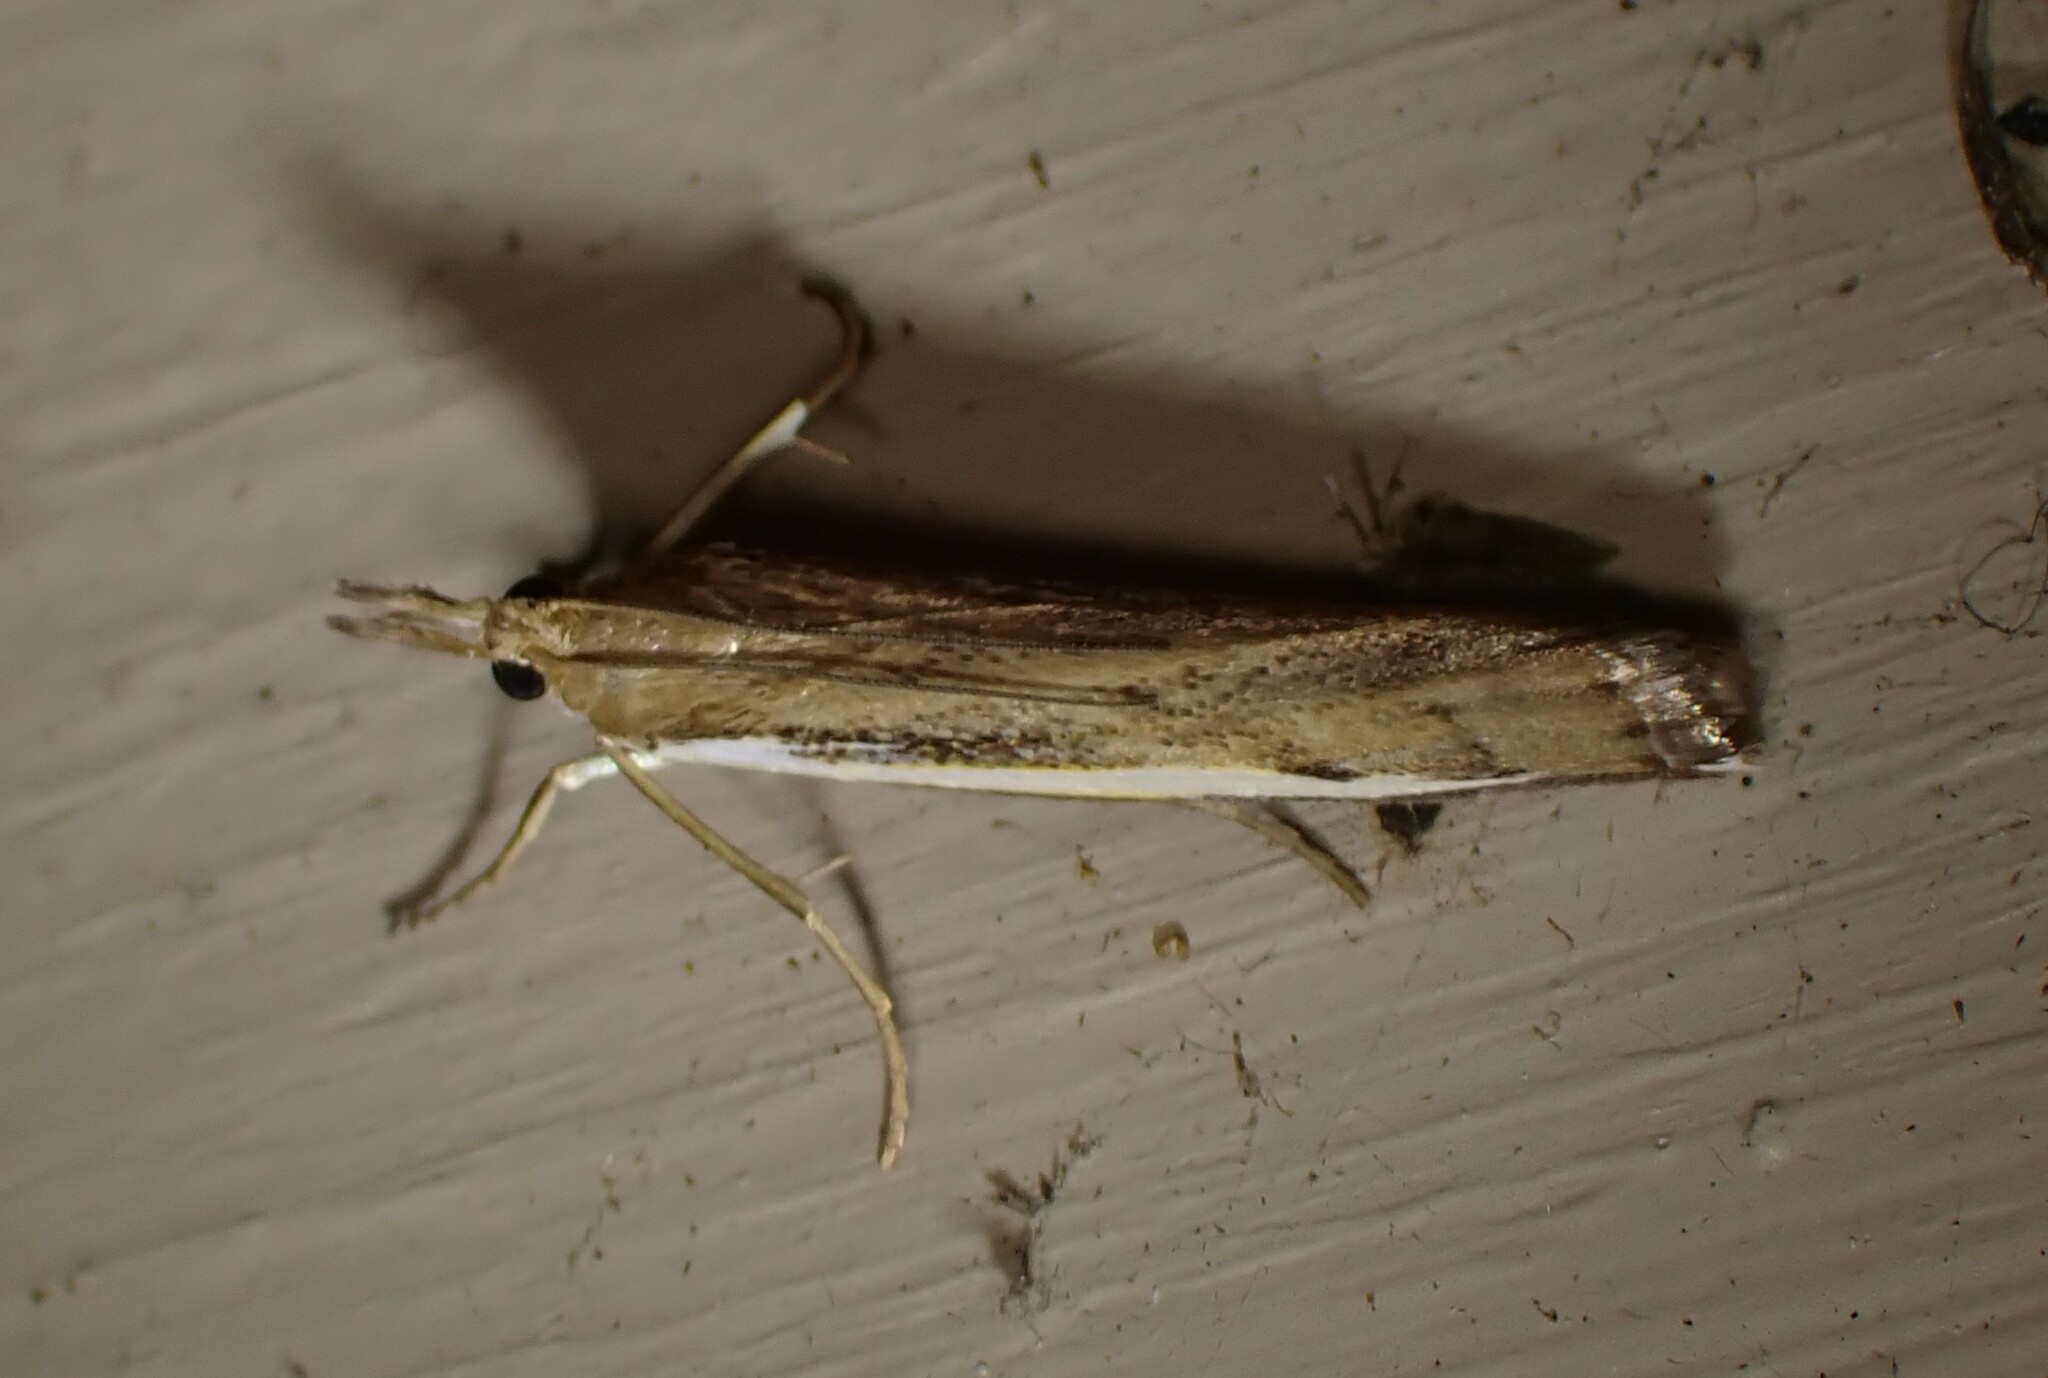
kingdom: Animalia
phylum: Arthropoda
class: Insecta
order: Lepidoptera
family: Crambidae
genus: Orocrambus
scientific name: Orocrambus flexuosellus
